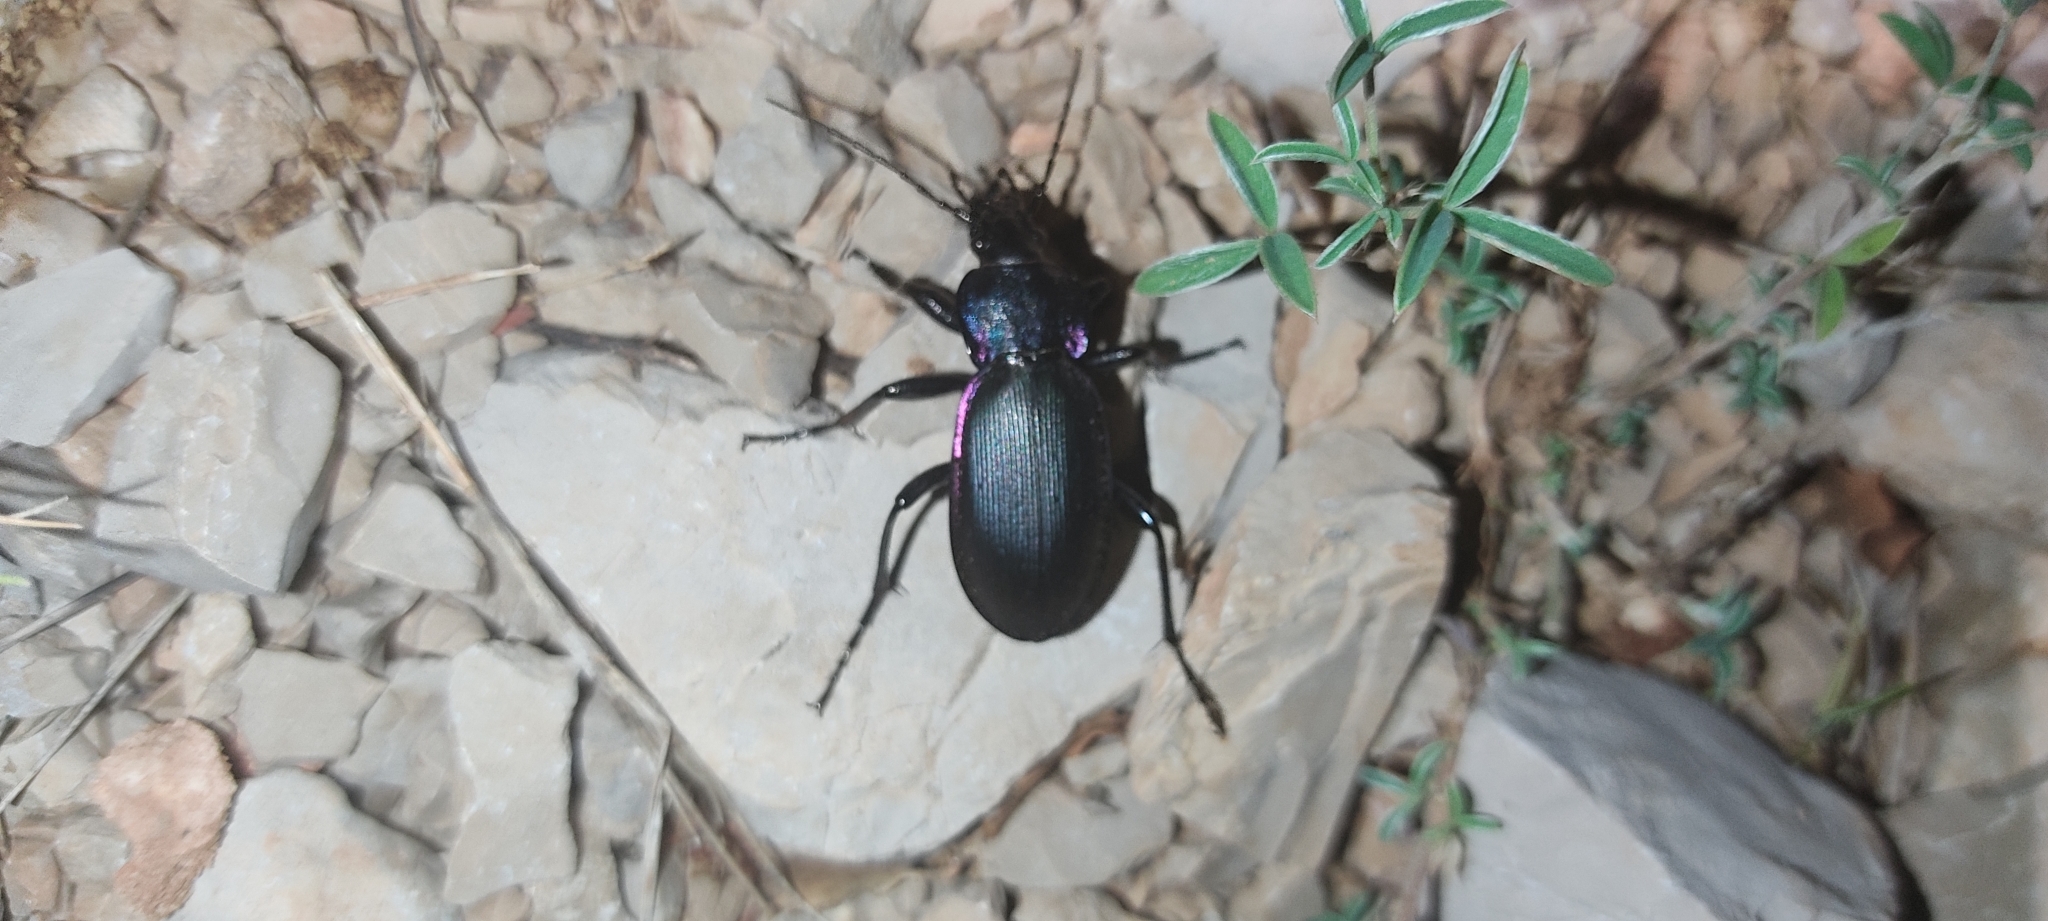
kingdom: Animalia
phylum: Arthropoda
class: Insecta
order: Coleoptera
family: Carabidae
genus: Carabus
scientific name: Carabus purpurascens
